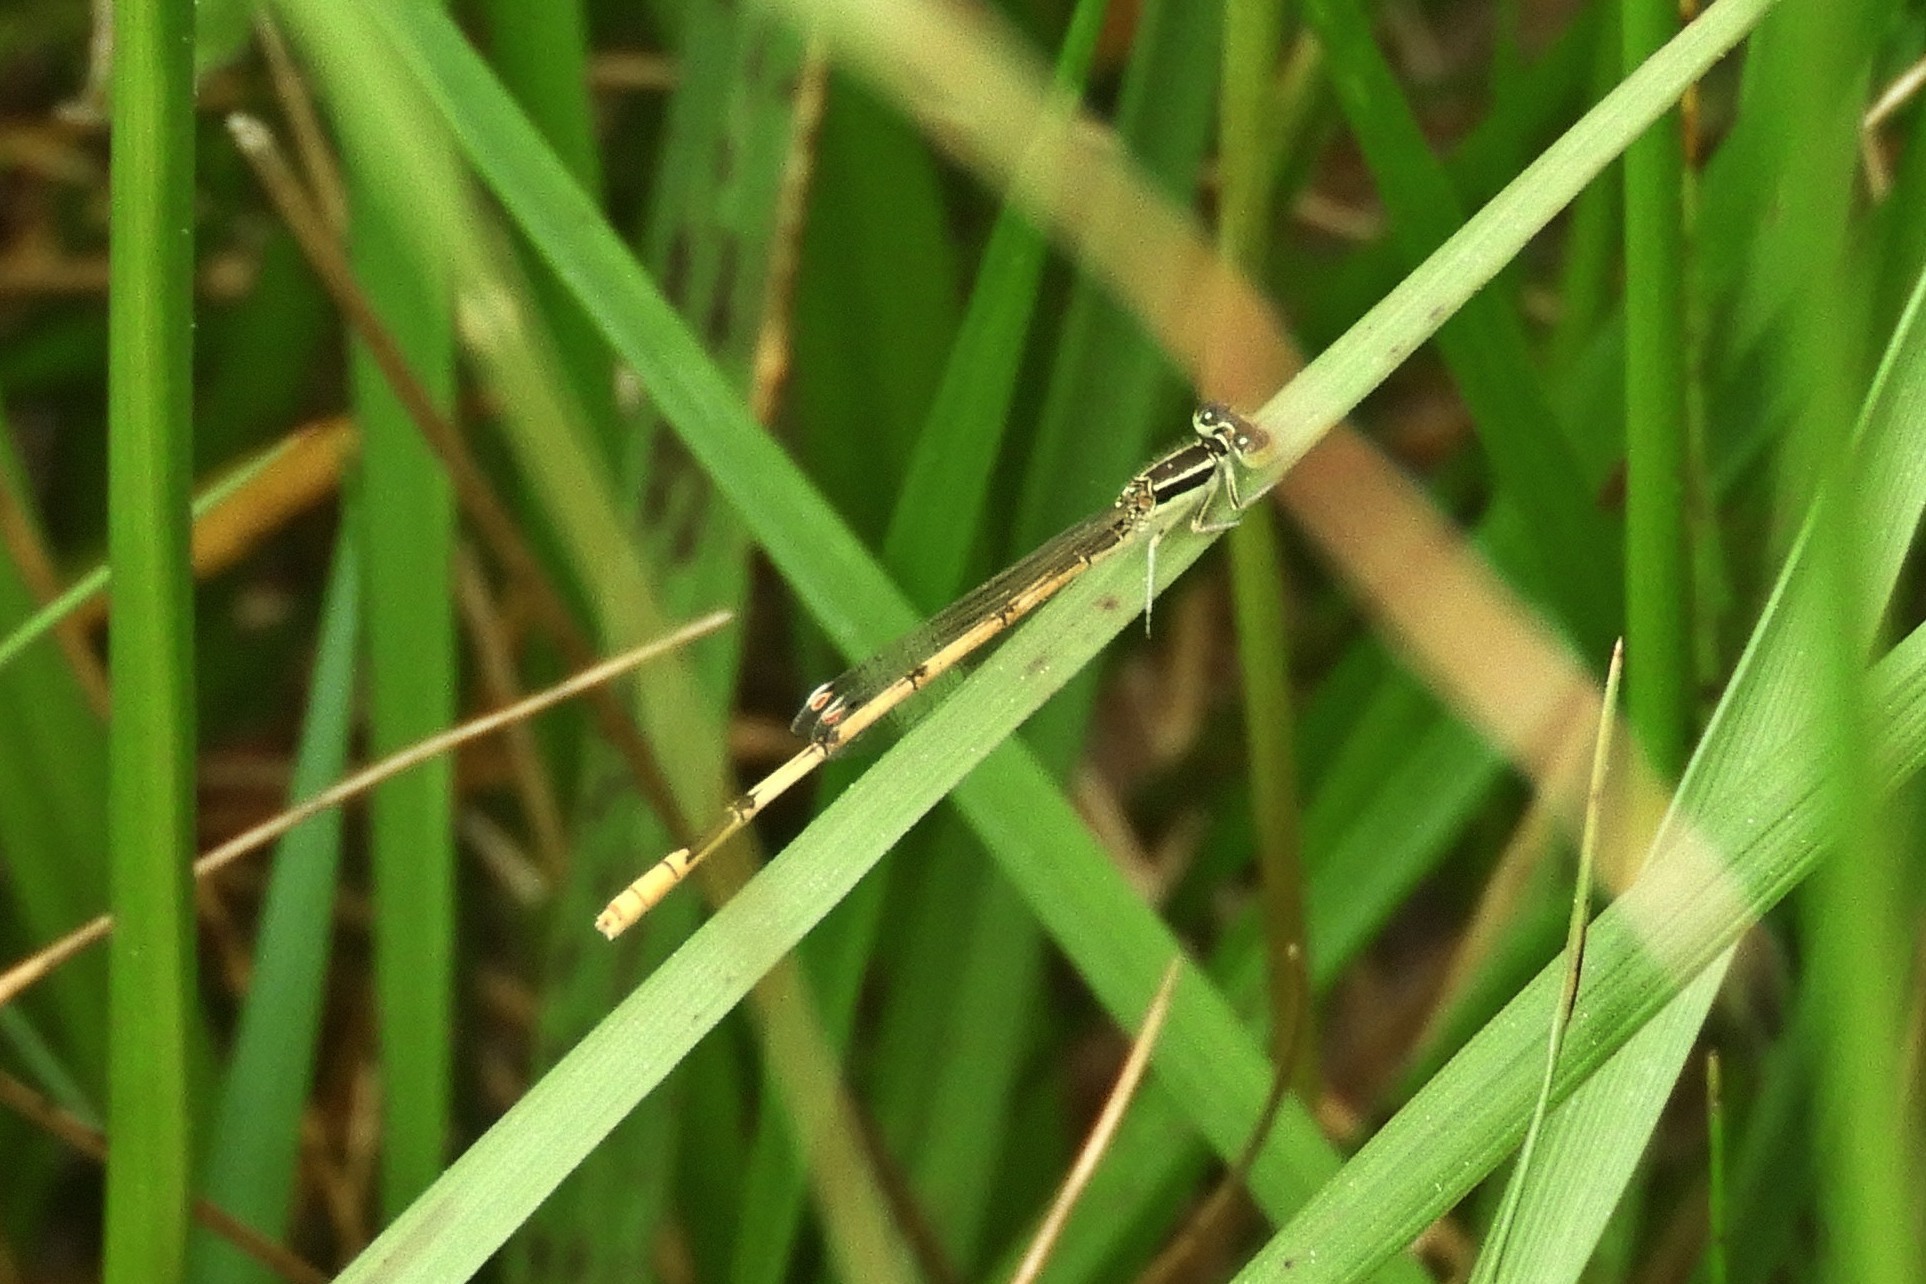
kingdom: Animalia
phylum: Arthropoda
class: Insecta
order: Odonata
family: Coenagrionidae
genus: Ischnura
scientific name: Ischnura hastata
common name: Citrine forktail
